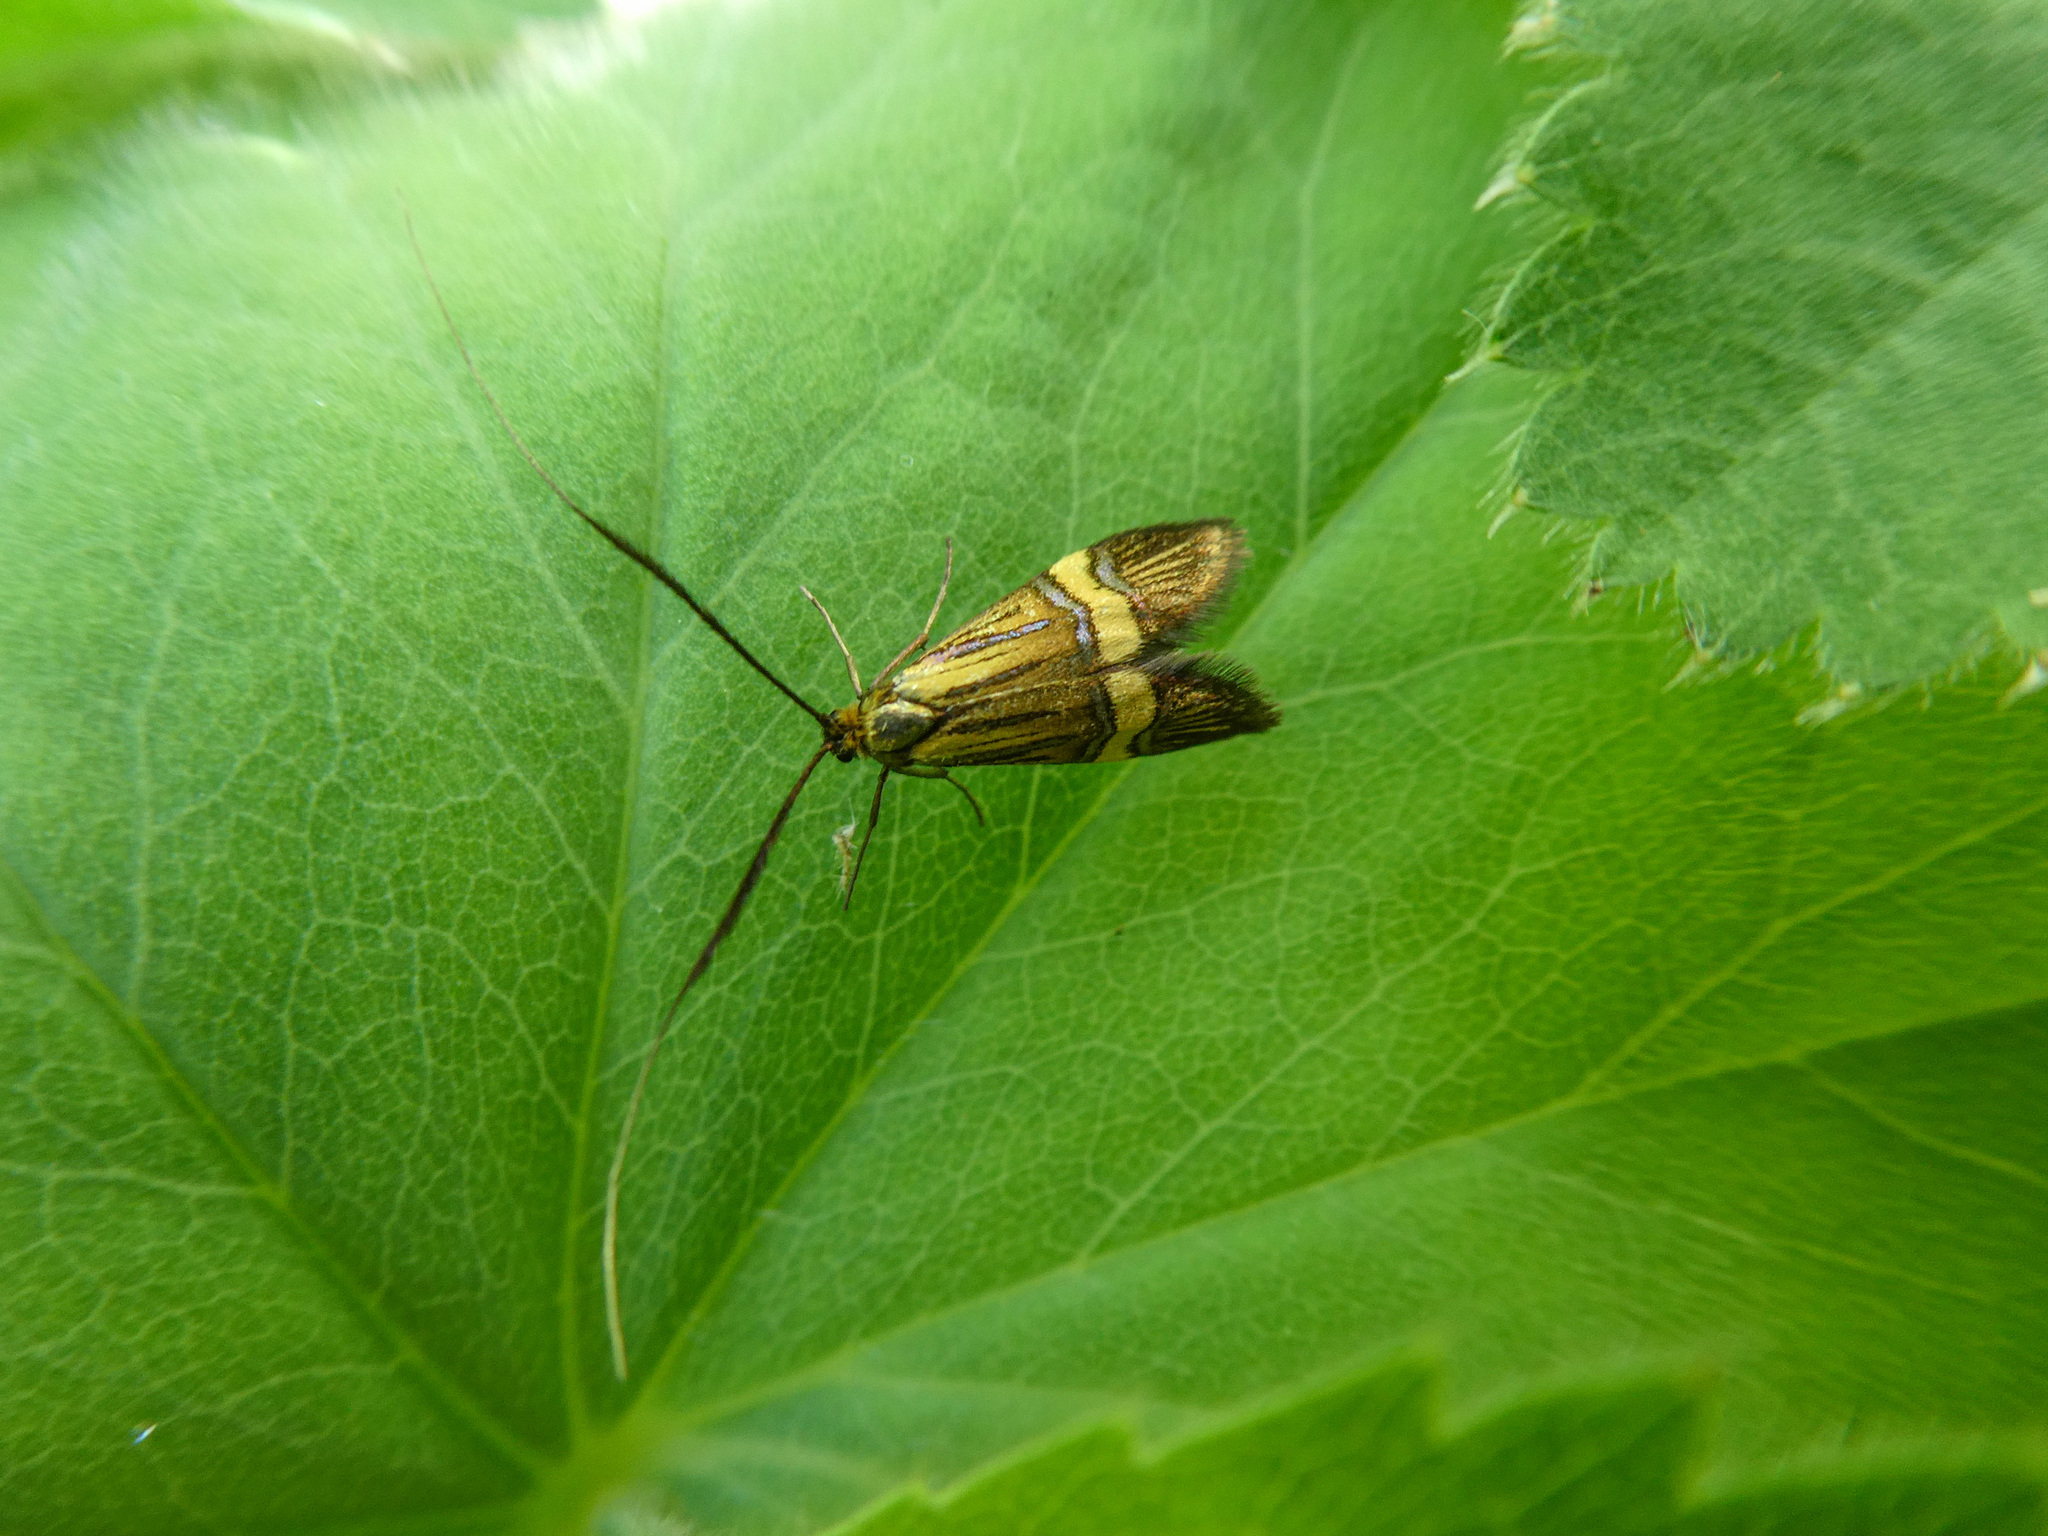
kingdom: Animalia
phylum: Arthropoda
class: Insecta
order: Lepidoptera
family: Adelidae
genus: Nemophora
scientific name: Nemophora
